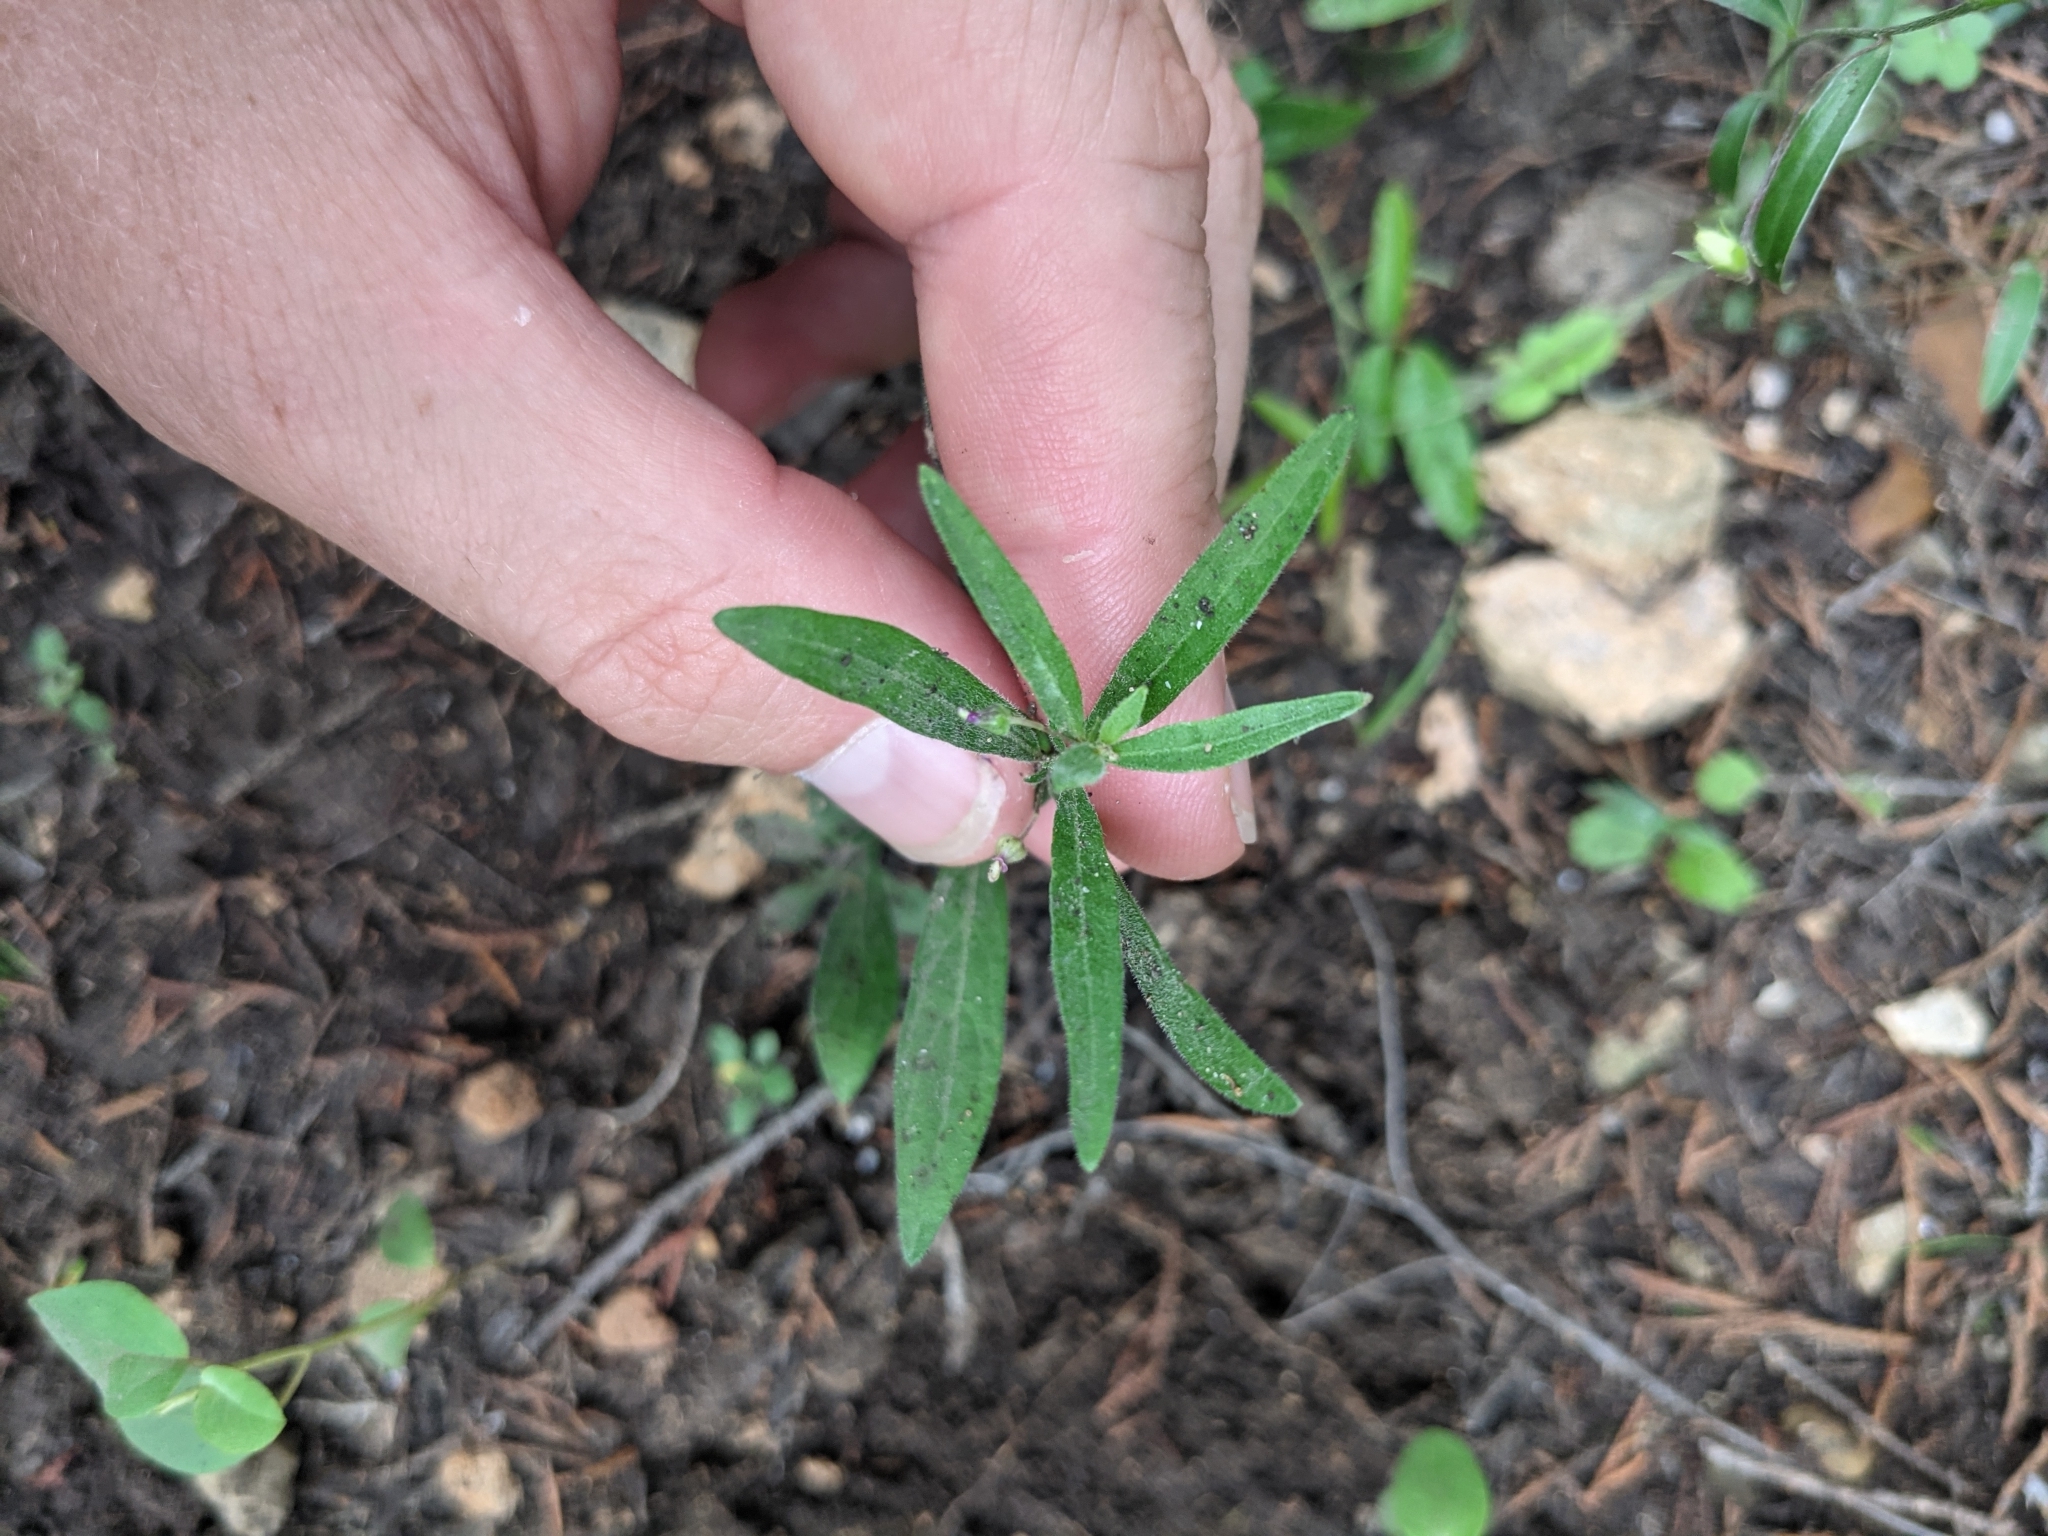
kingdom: Plantae
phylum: Tracheophyta
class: Magnoliopsida
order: Malpighiales
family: Violaceae
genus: Pombalia
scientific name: Pombalia verticillata
